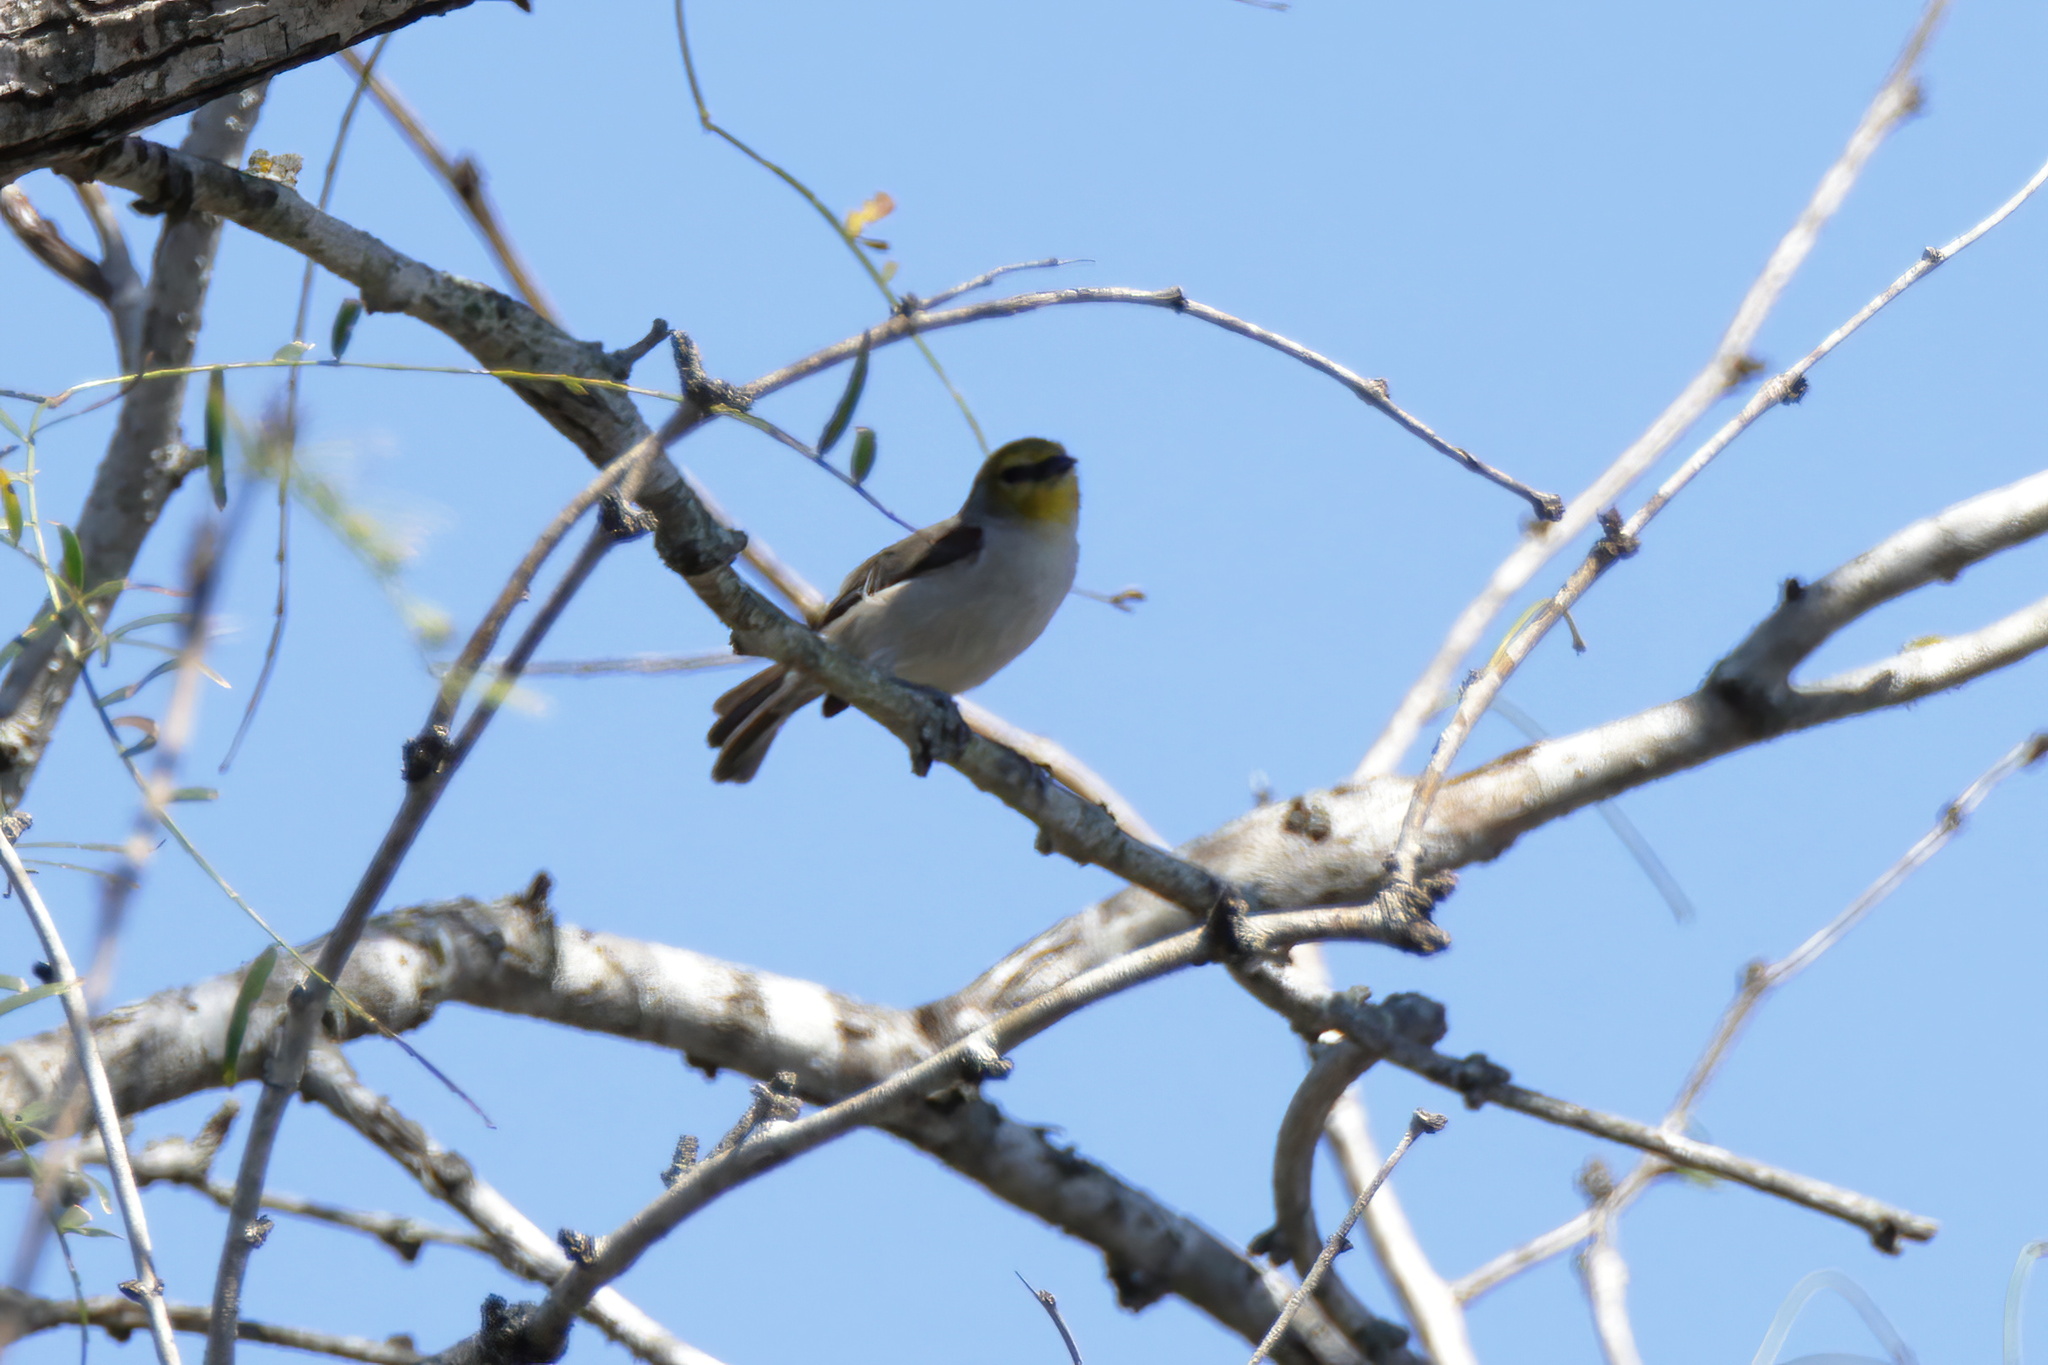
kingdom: Animalia
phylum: Chordata
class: Aves
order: Passeriformes
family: Remizidae
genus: Auriparus
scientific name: Auriparus flaviceps
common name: Verdin
